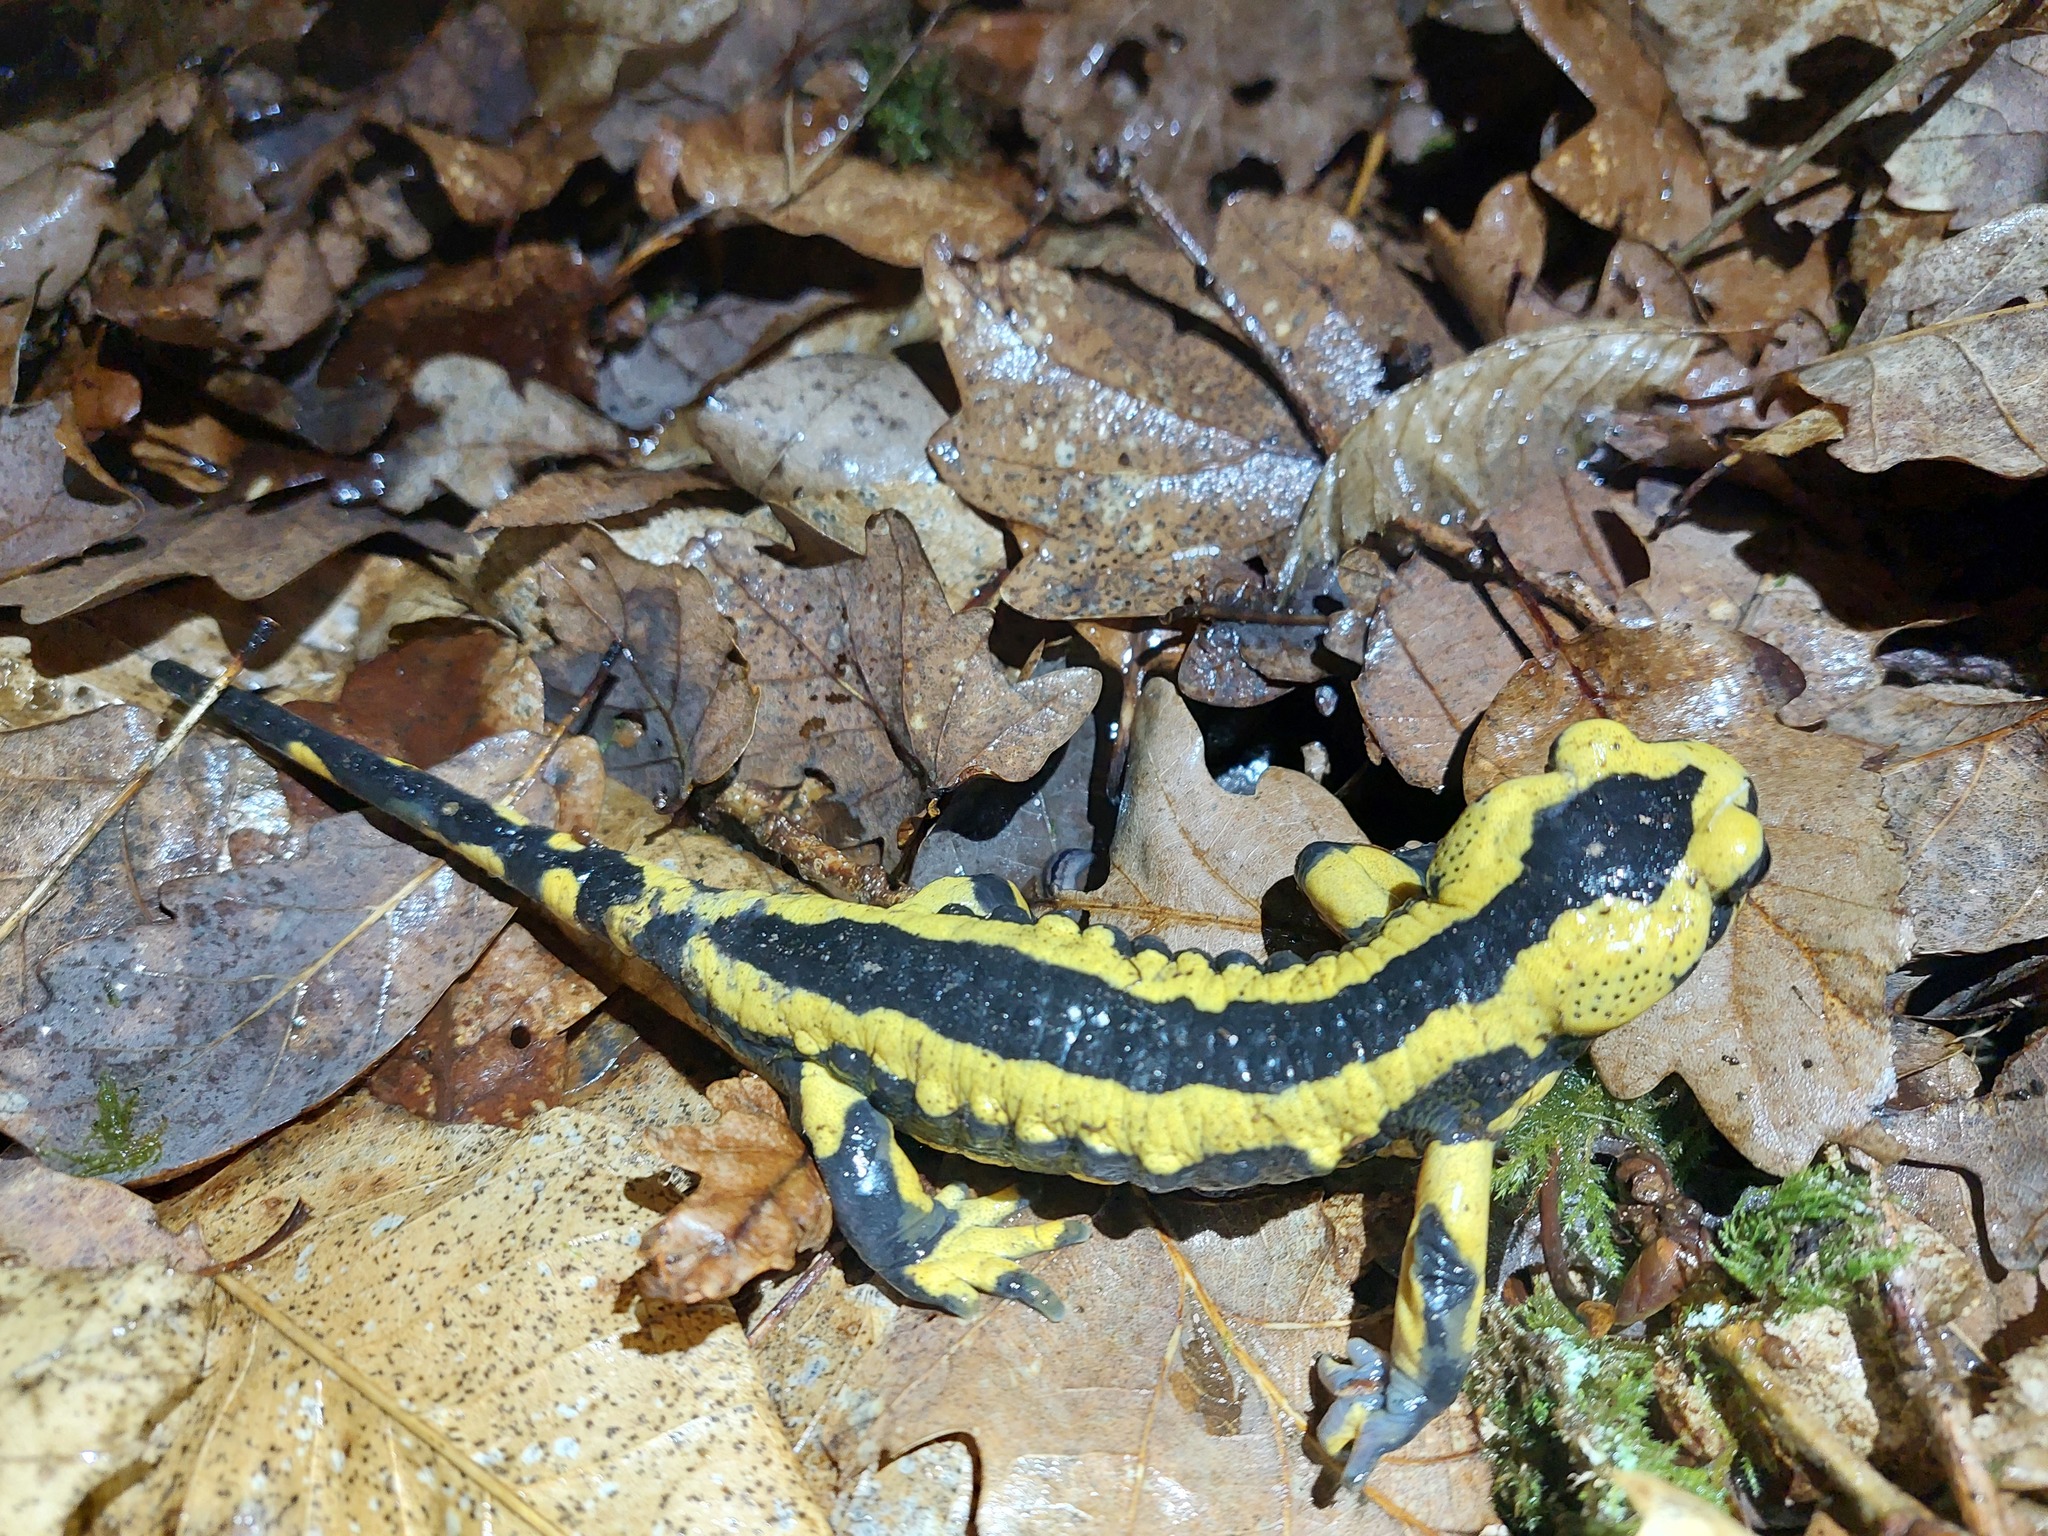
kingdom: Animalia
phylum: Chordata
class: Amphibia
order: Caudata
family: Salamandridae
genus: Salamandra
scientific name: Salamandra salamandra
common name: Fire salamander
